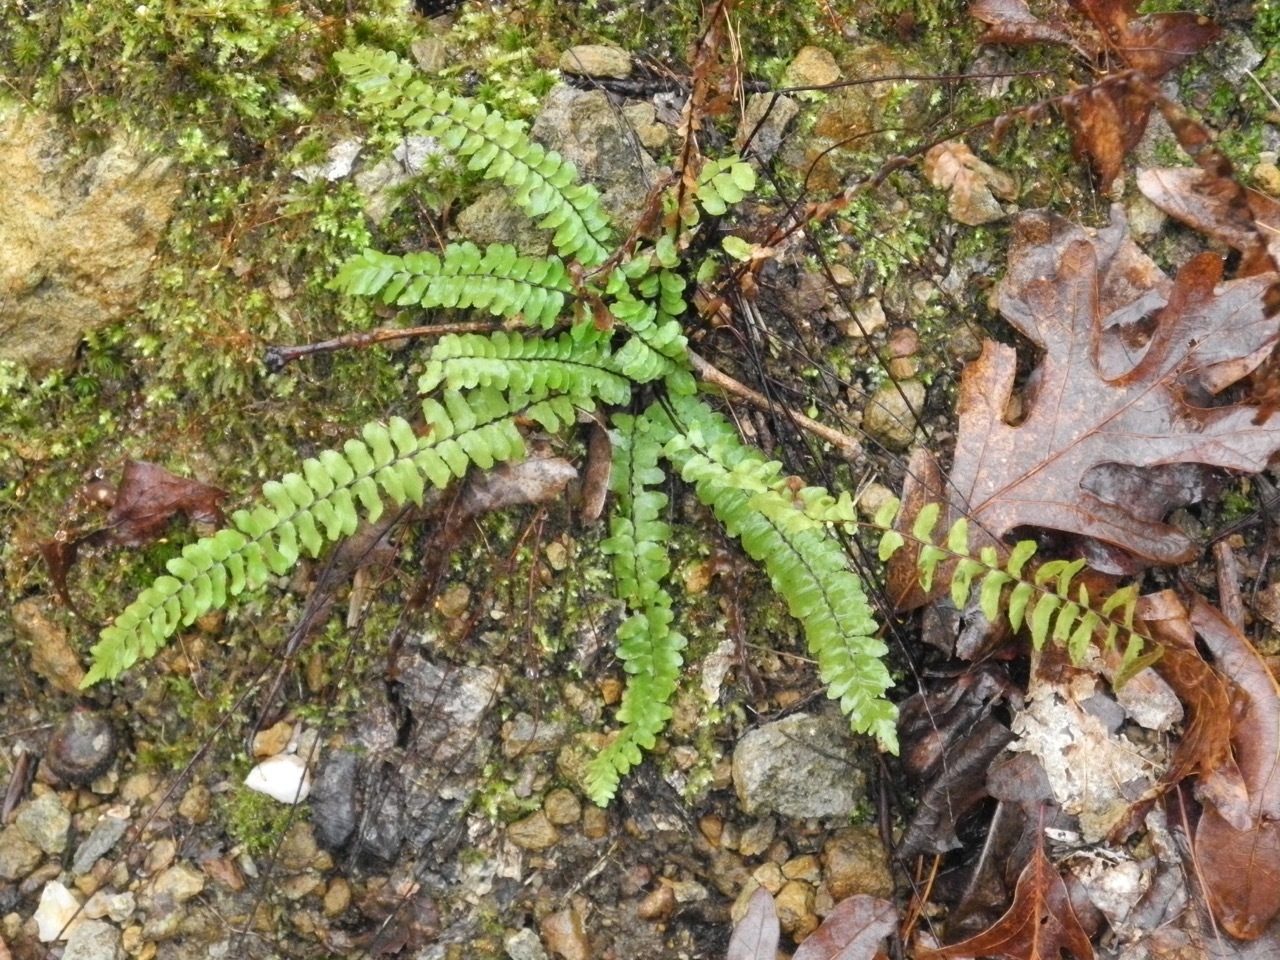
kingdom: Plantae
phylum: Tracheophyta
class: Polypodiopsida
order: Polypodiales
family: Aspleniaceae
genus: Asplenium
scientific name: Asplenium platyneuron
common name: Ebony spleenwort
